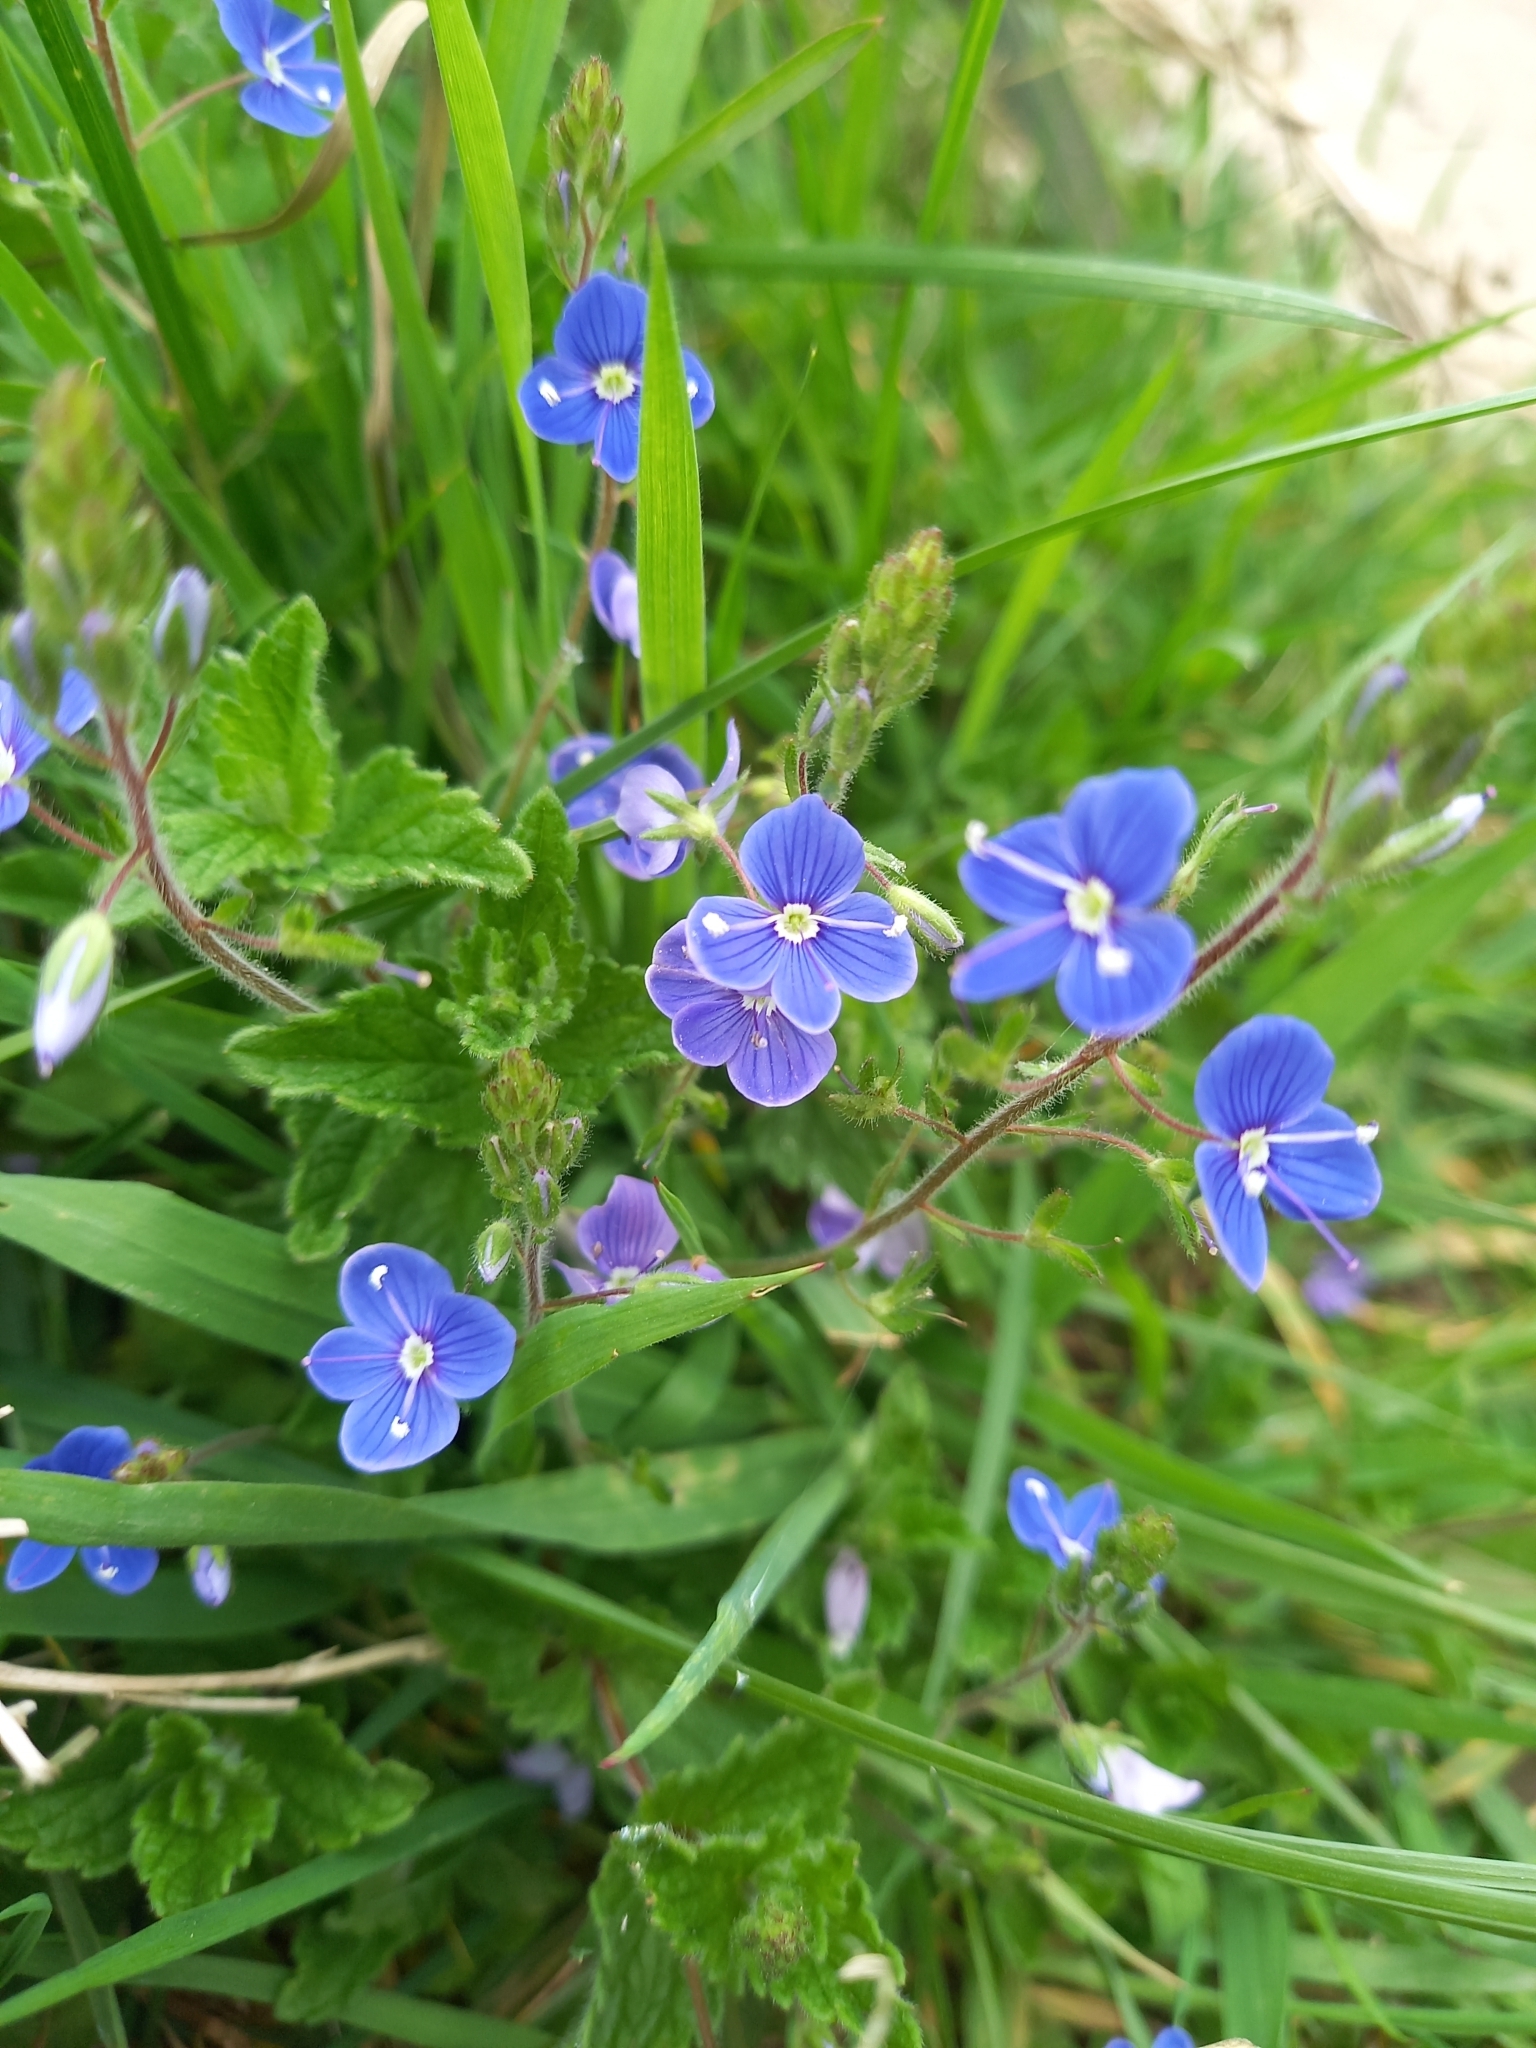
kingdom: Plantae
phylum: Tracheophyta
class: Magnoliopsida
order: Lamiales
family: Plantaginaceae
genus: Veronica
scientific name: Veronica chamaedrys
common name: Germander speedwell
